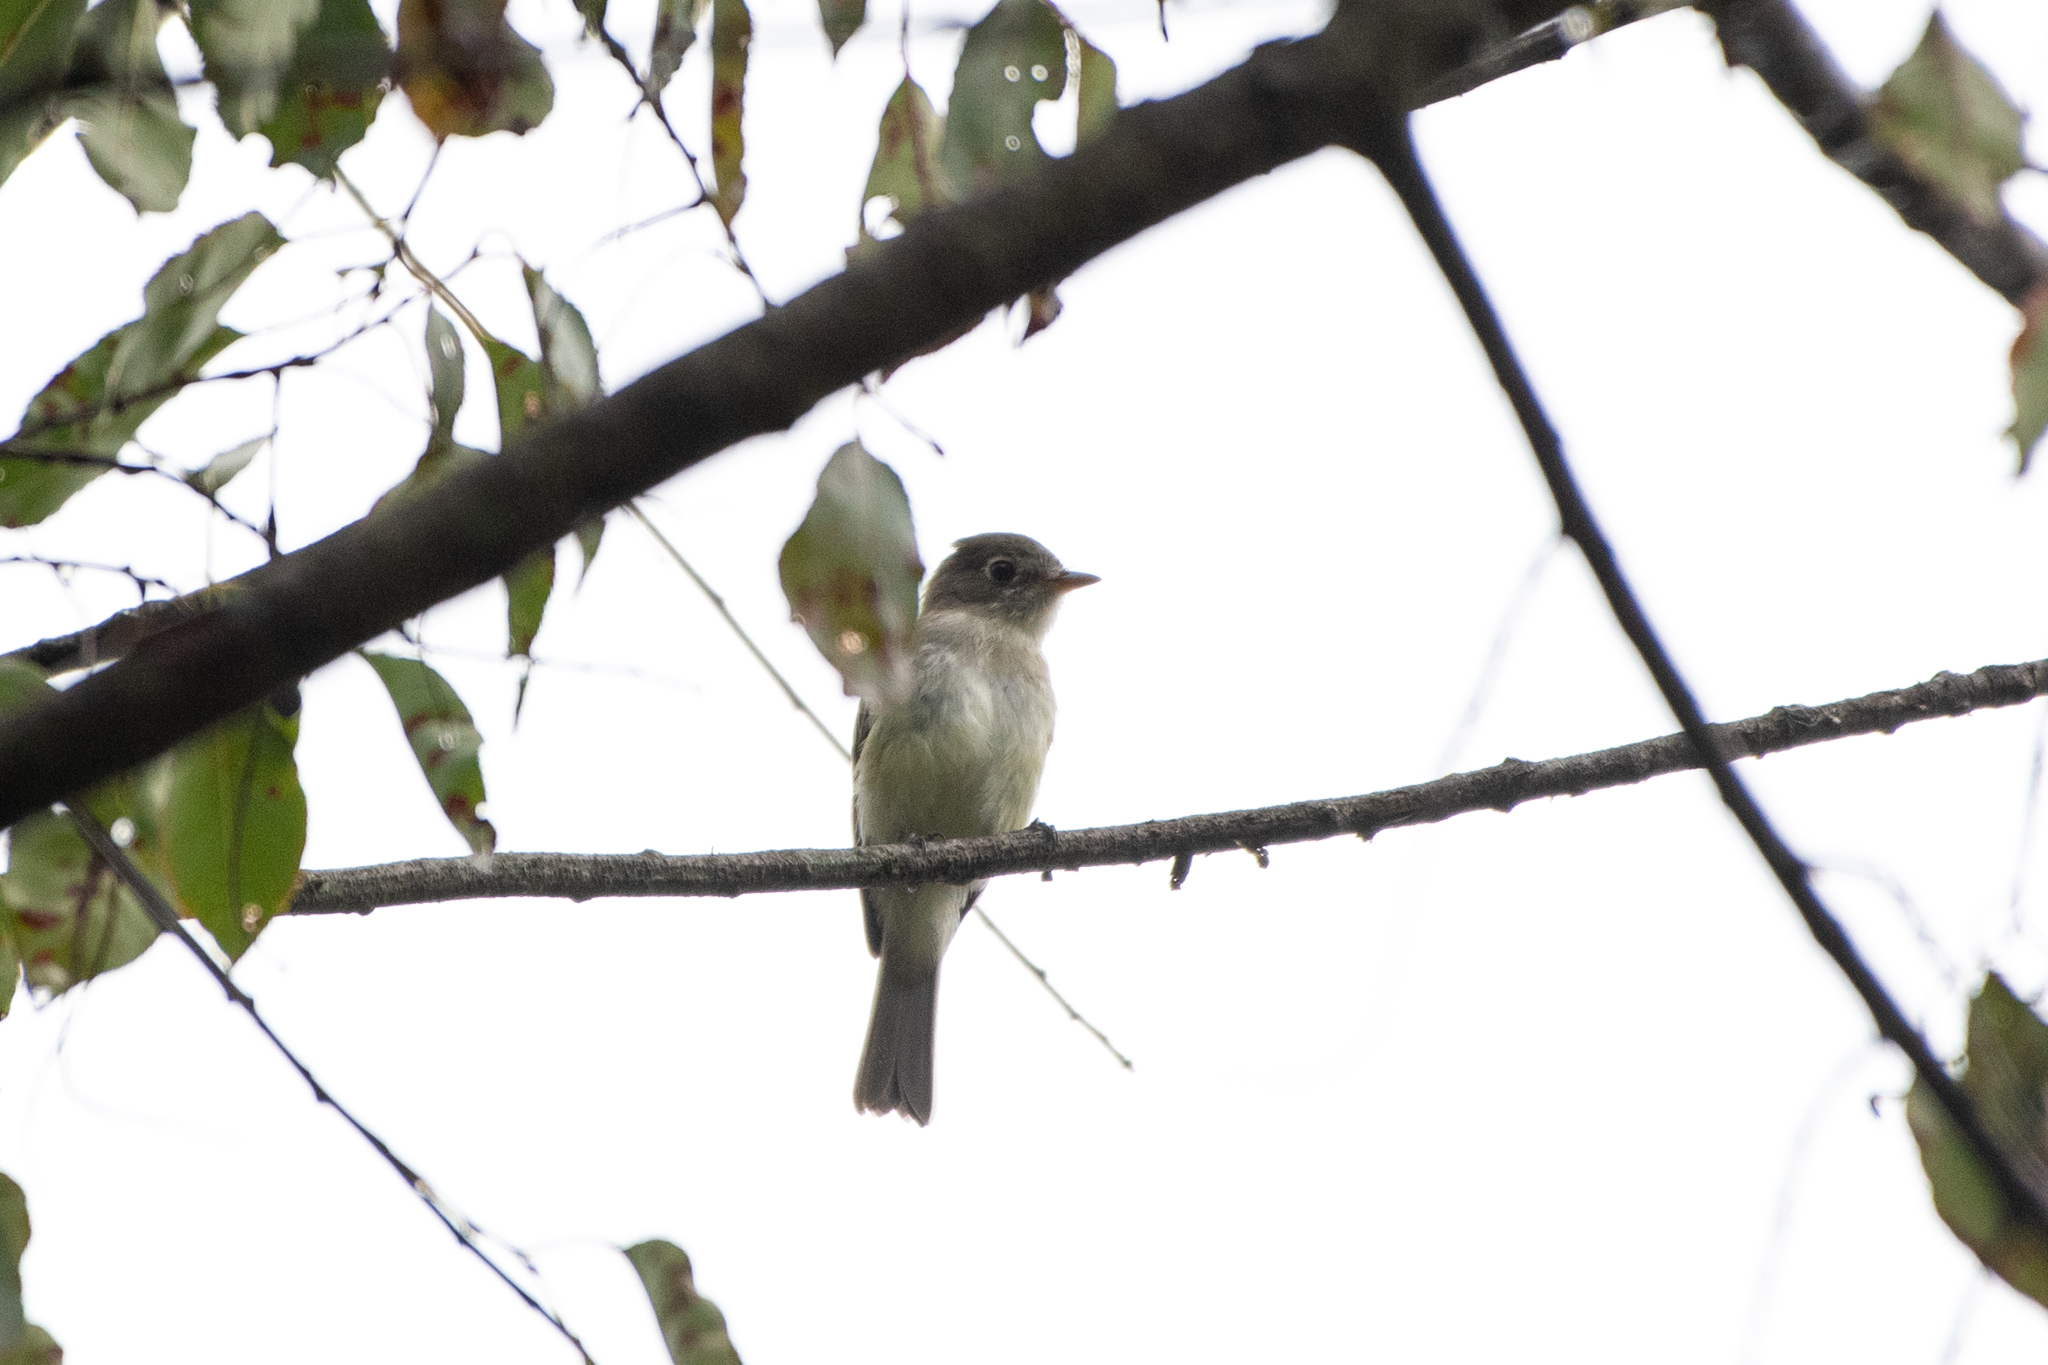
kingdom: Animalia
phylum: Chordata
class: Aves
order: Passeriformes
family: Tyrannidae
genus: Empidonax
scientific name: Empidonax minimus
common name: Least flycatcher
